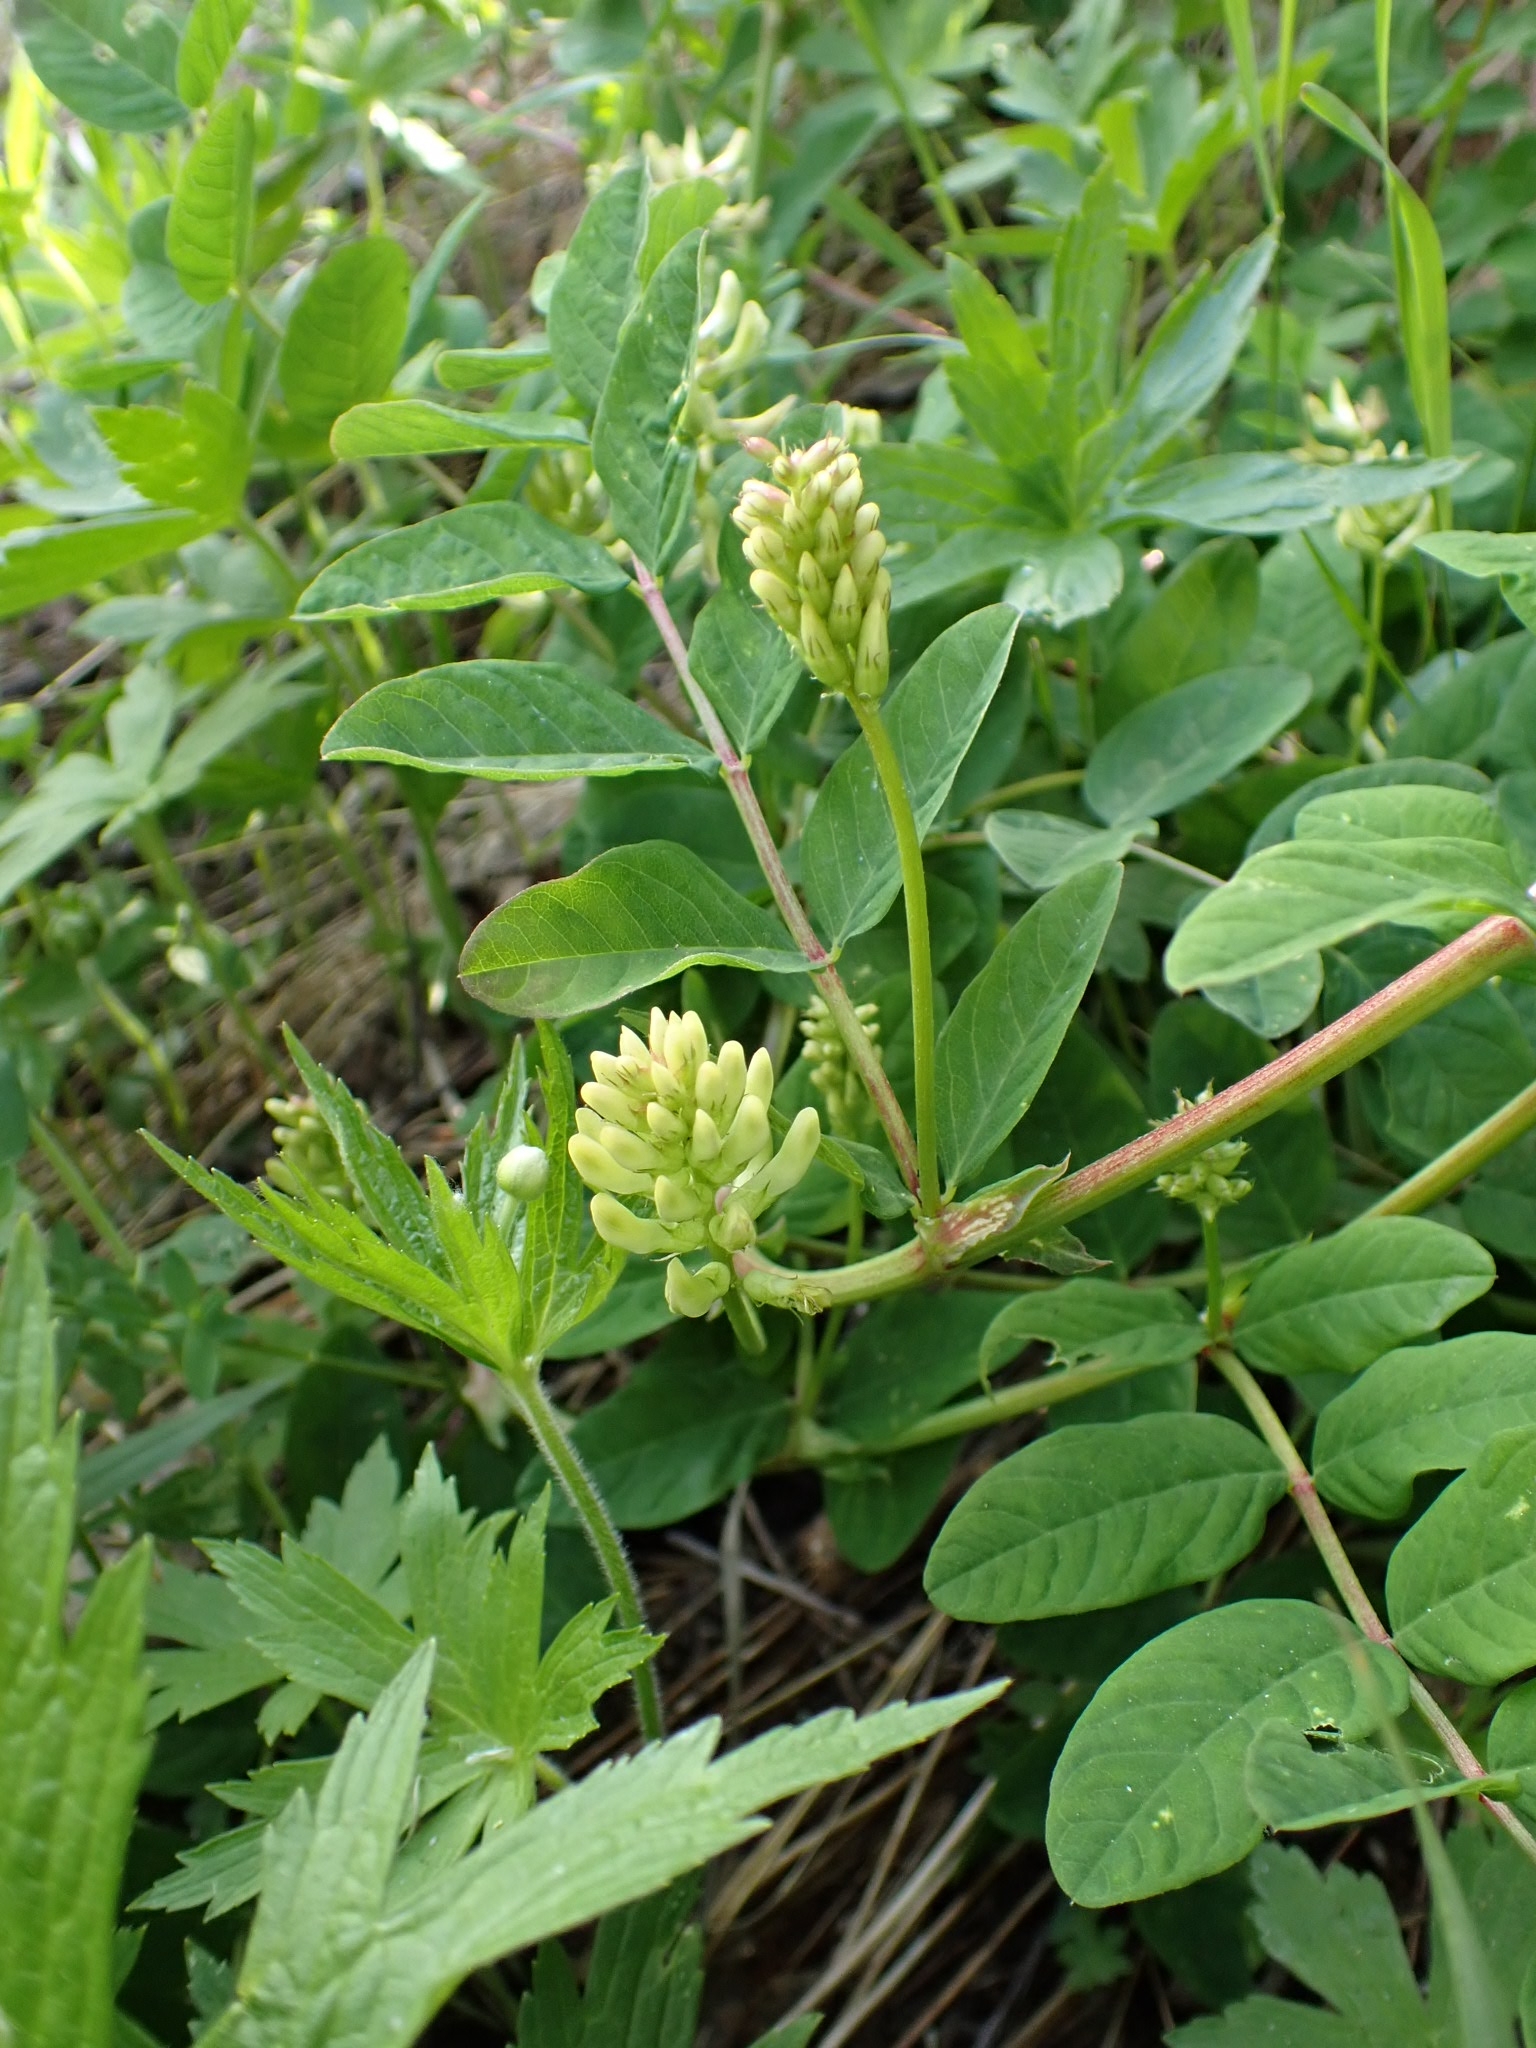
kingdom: Plantae
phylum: Tracheophyta
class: Magnoliopsida
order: Fabales
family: Fabaceae
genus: Astragalus
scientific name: Astragalus glycyphyllos
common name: Wild liquorice
